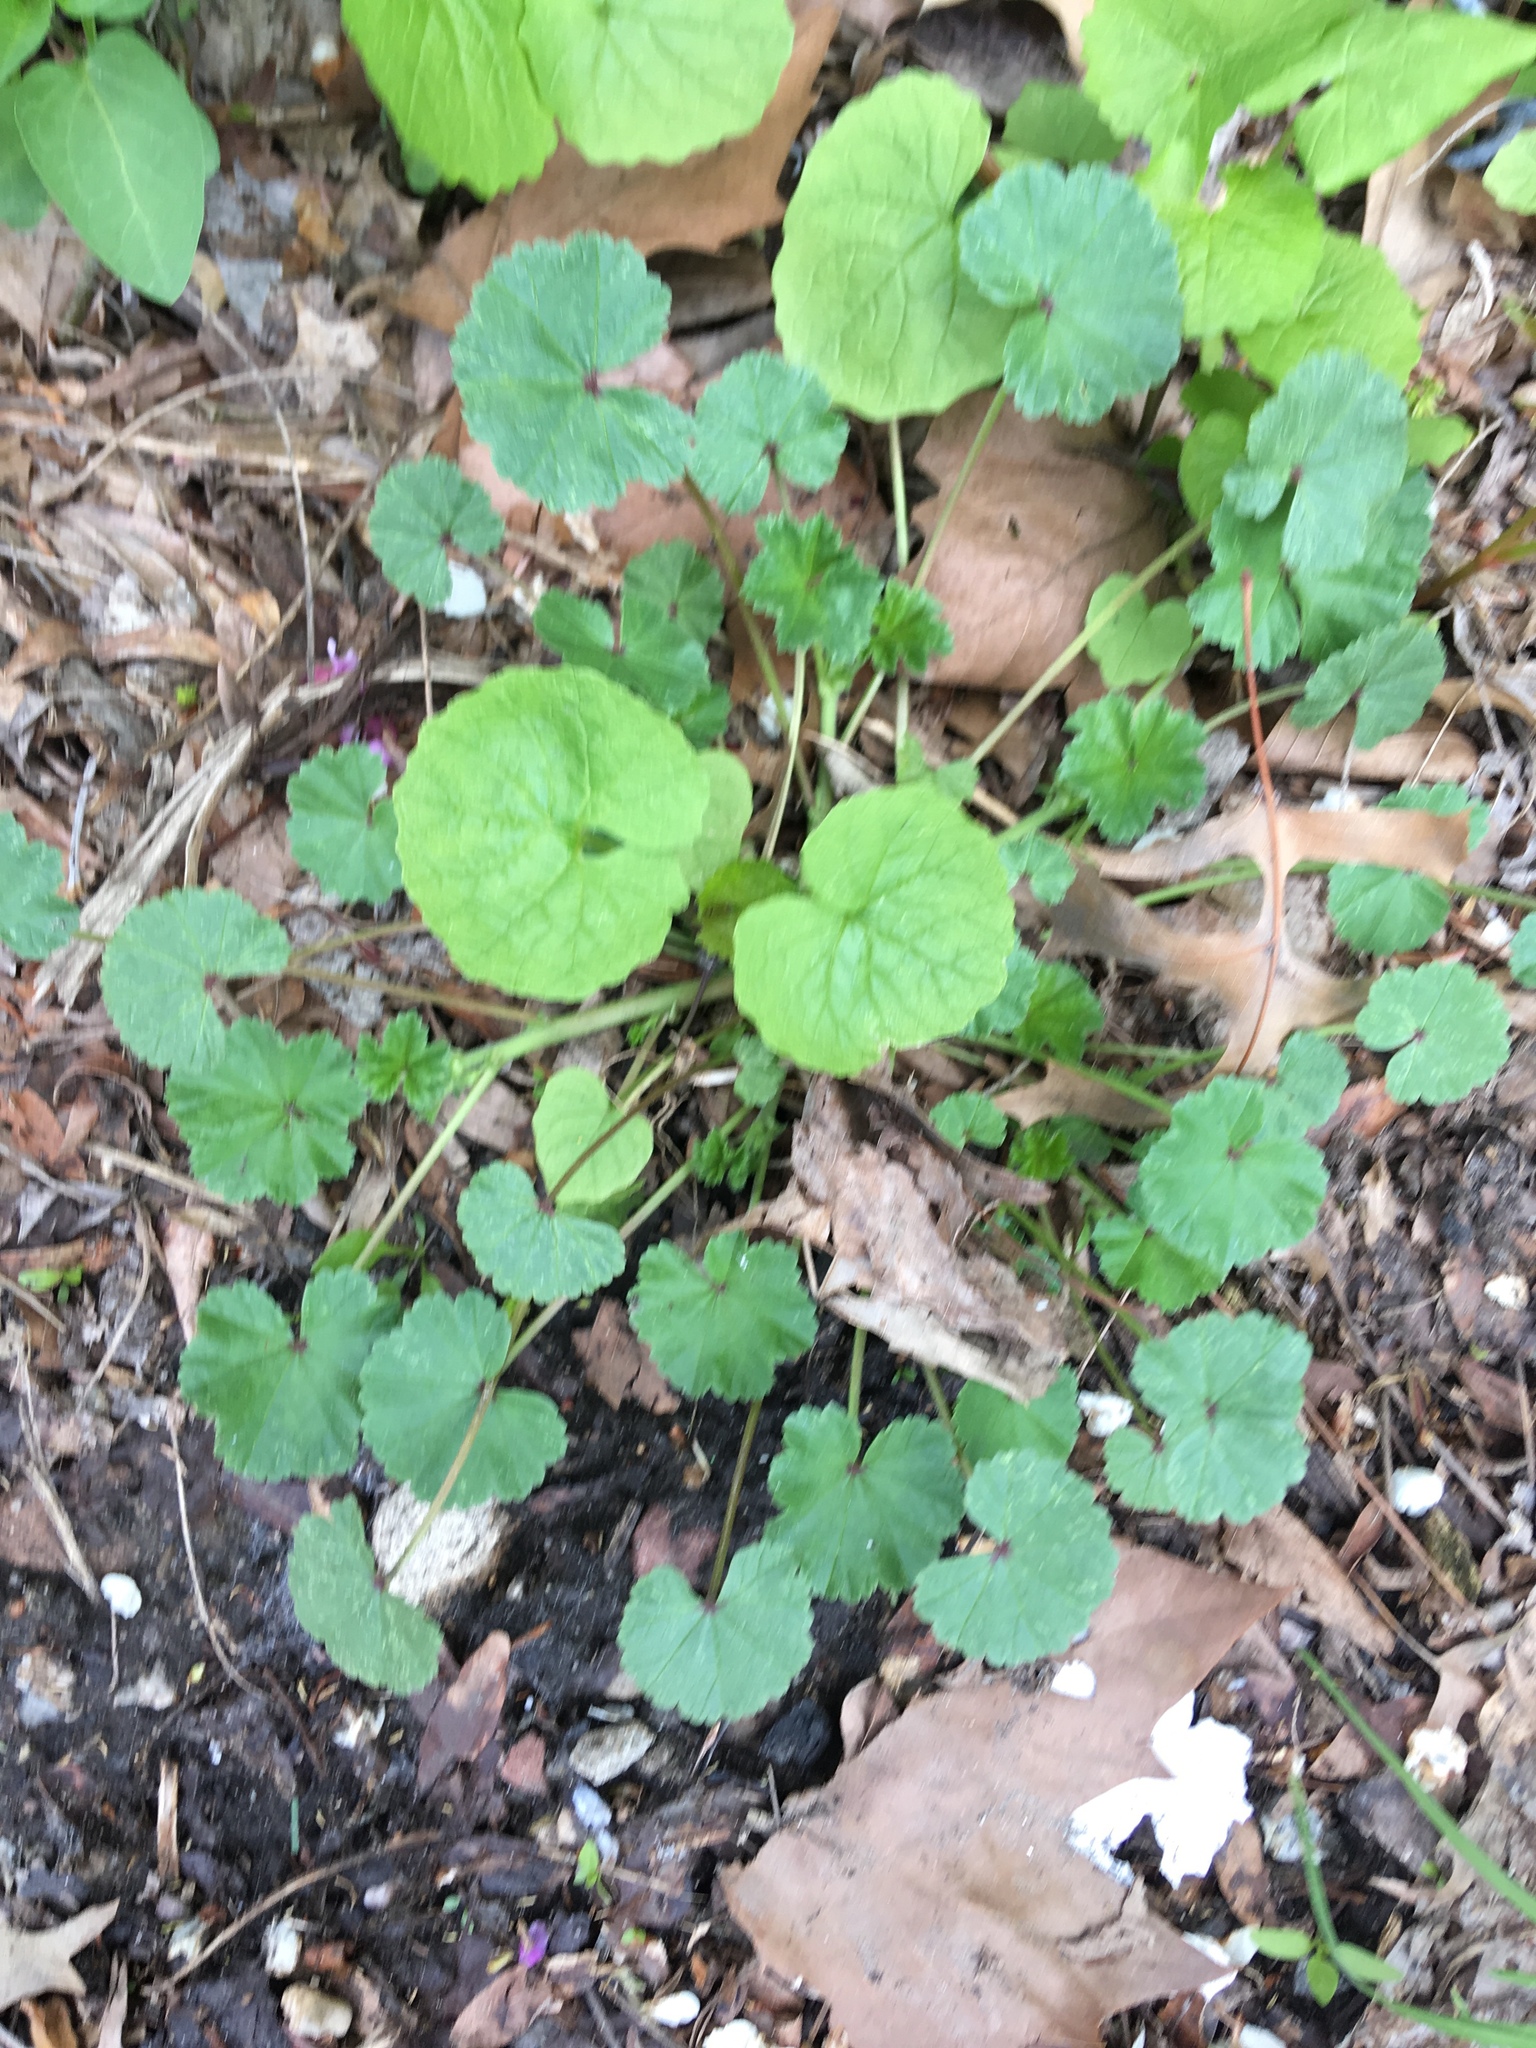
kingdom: Plantae
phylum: Tracheophyta
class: Magnoliopsida
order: Malvales
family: Malvaceae
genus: Malva
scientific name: Malva neglecta
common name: Common mallow
